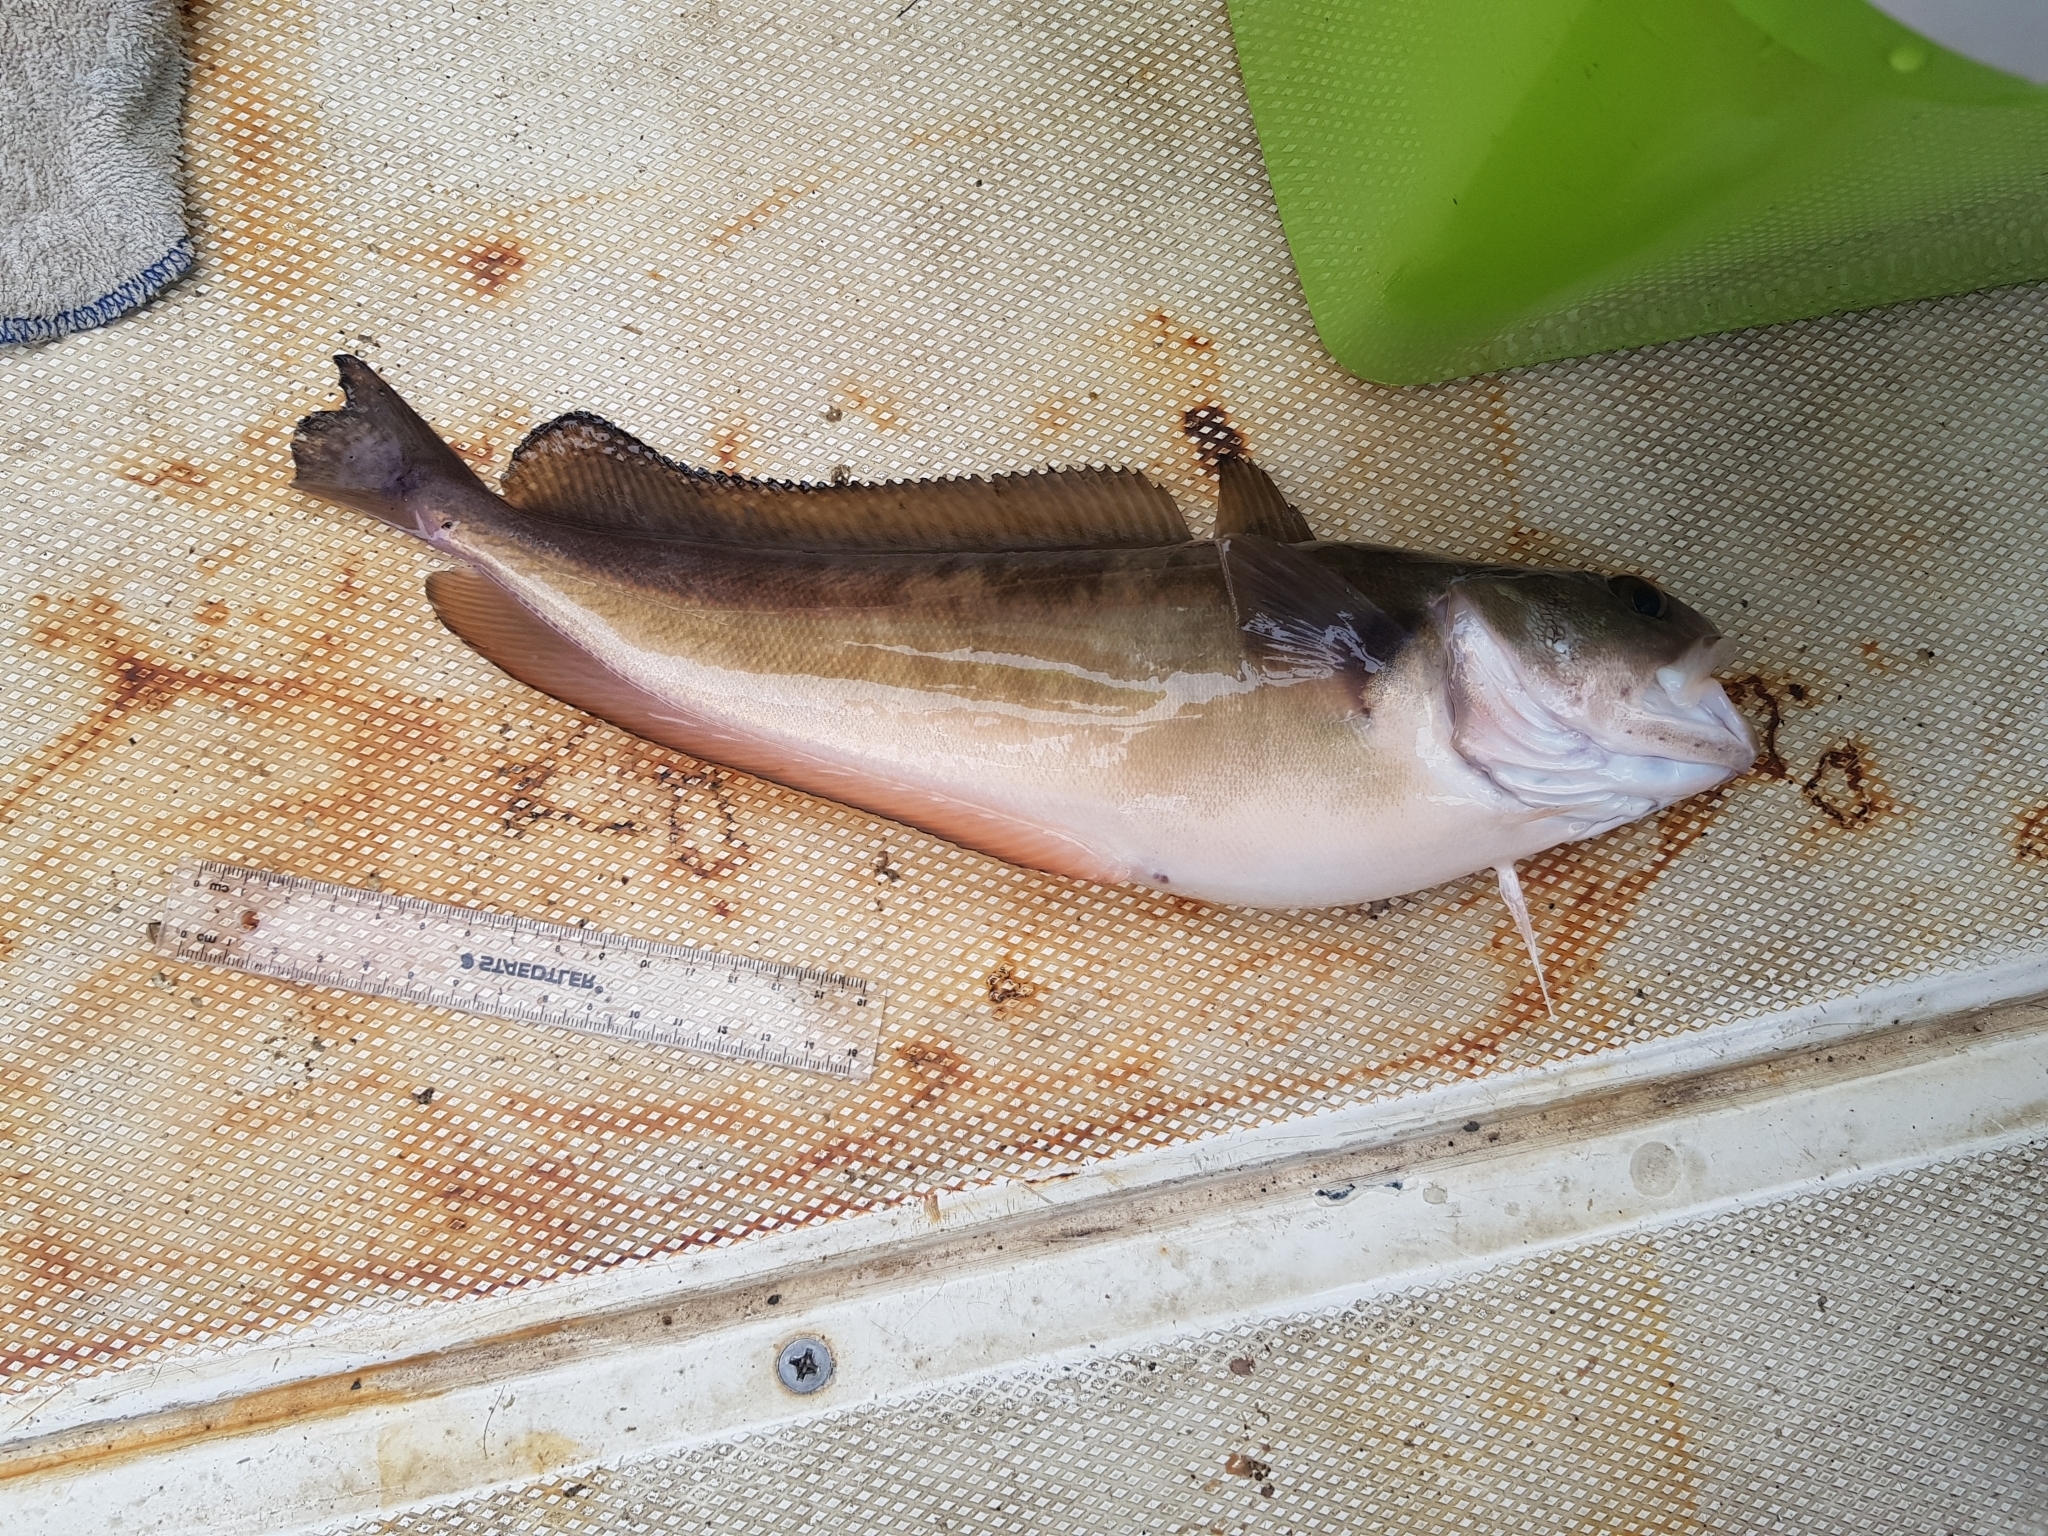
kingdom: Animalia
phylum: Chordata
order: Gadiformes
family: Moridae
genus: Pseudophycis
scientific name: Pseudophycis palmata
